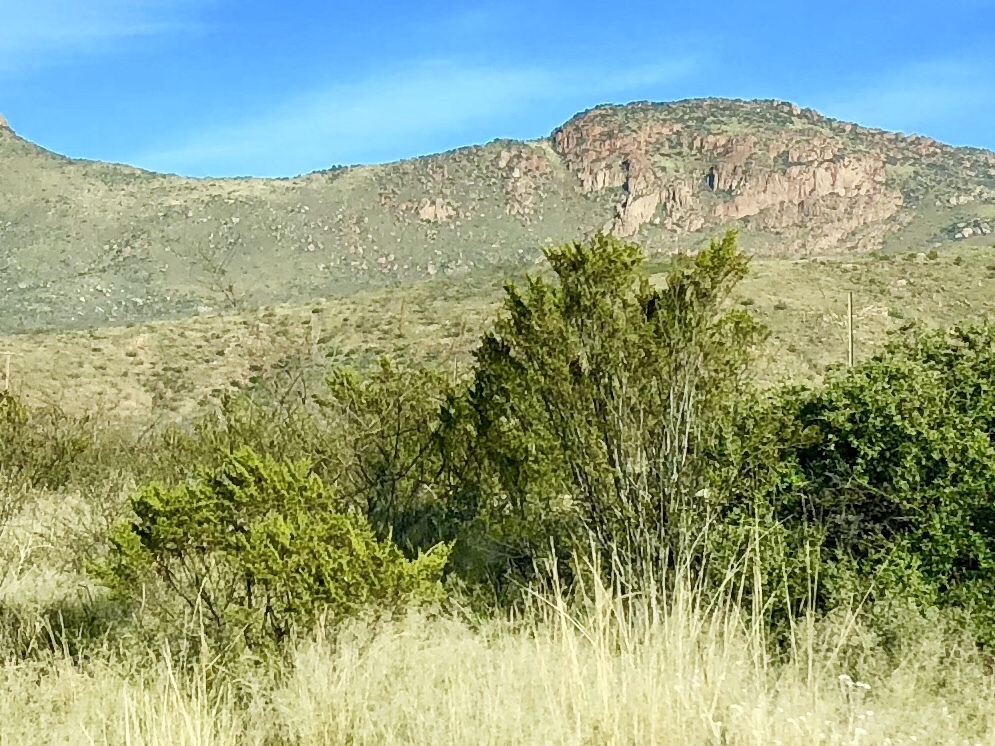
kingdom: Plantae
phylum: Tracheophyta
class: Magnoliopsida
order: Zygophyllales
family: Zygophyllaceae
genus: Larrea
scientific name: Larrea tridentata
